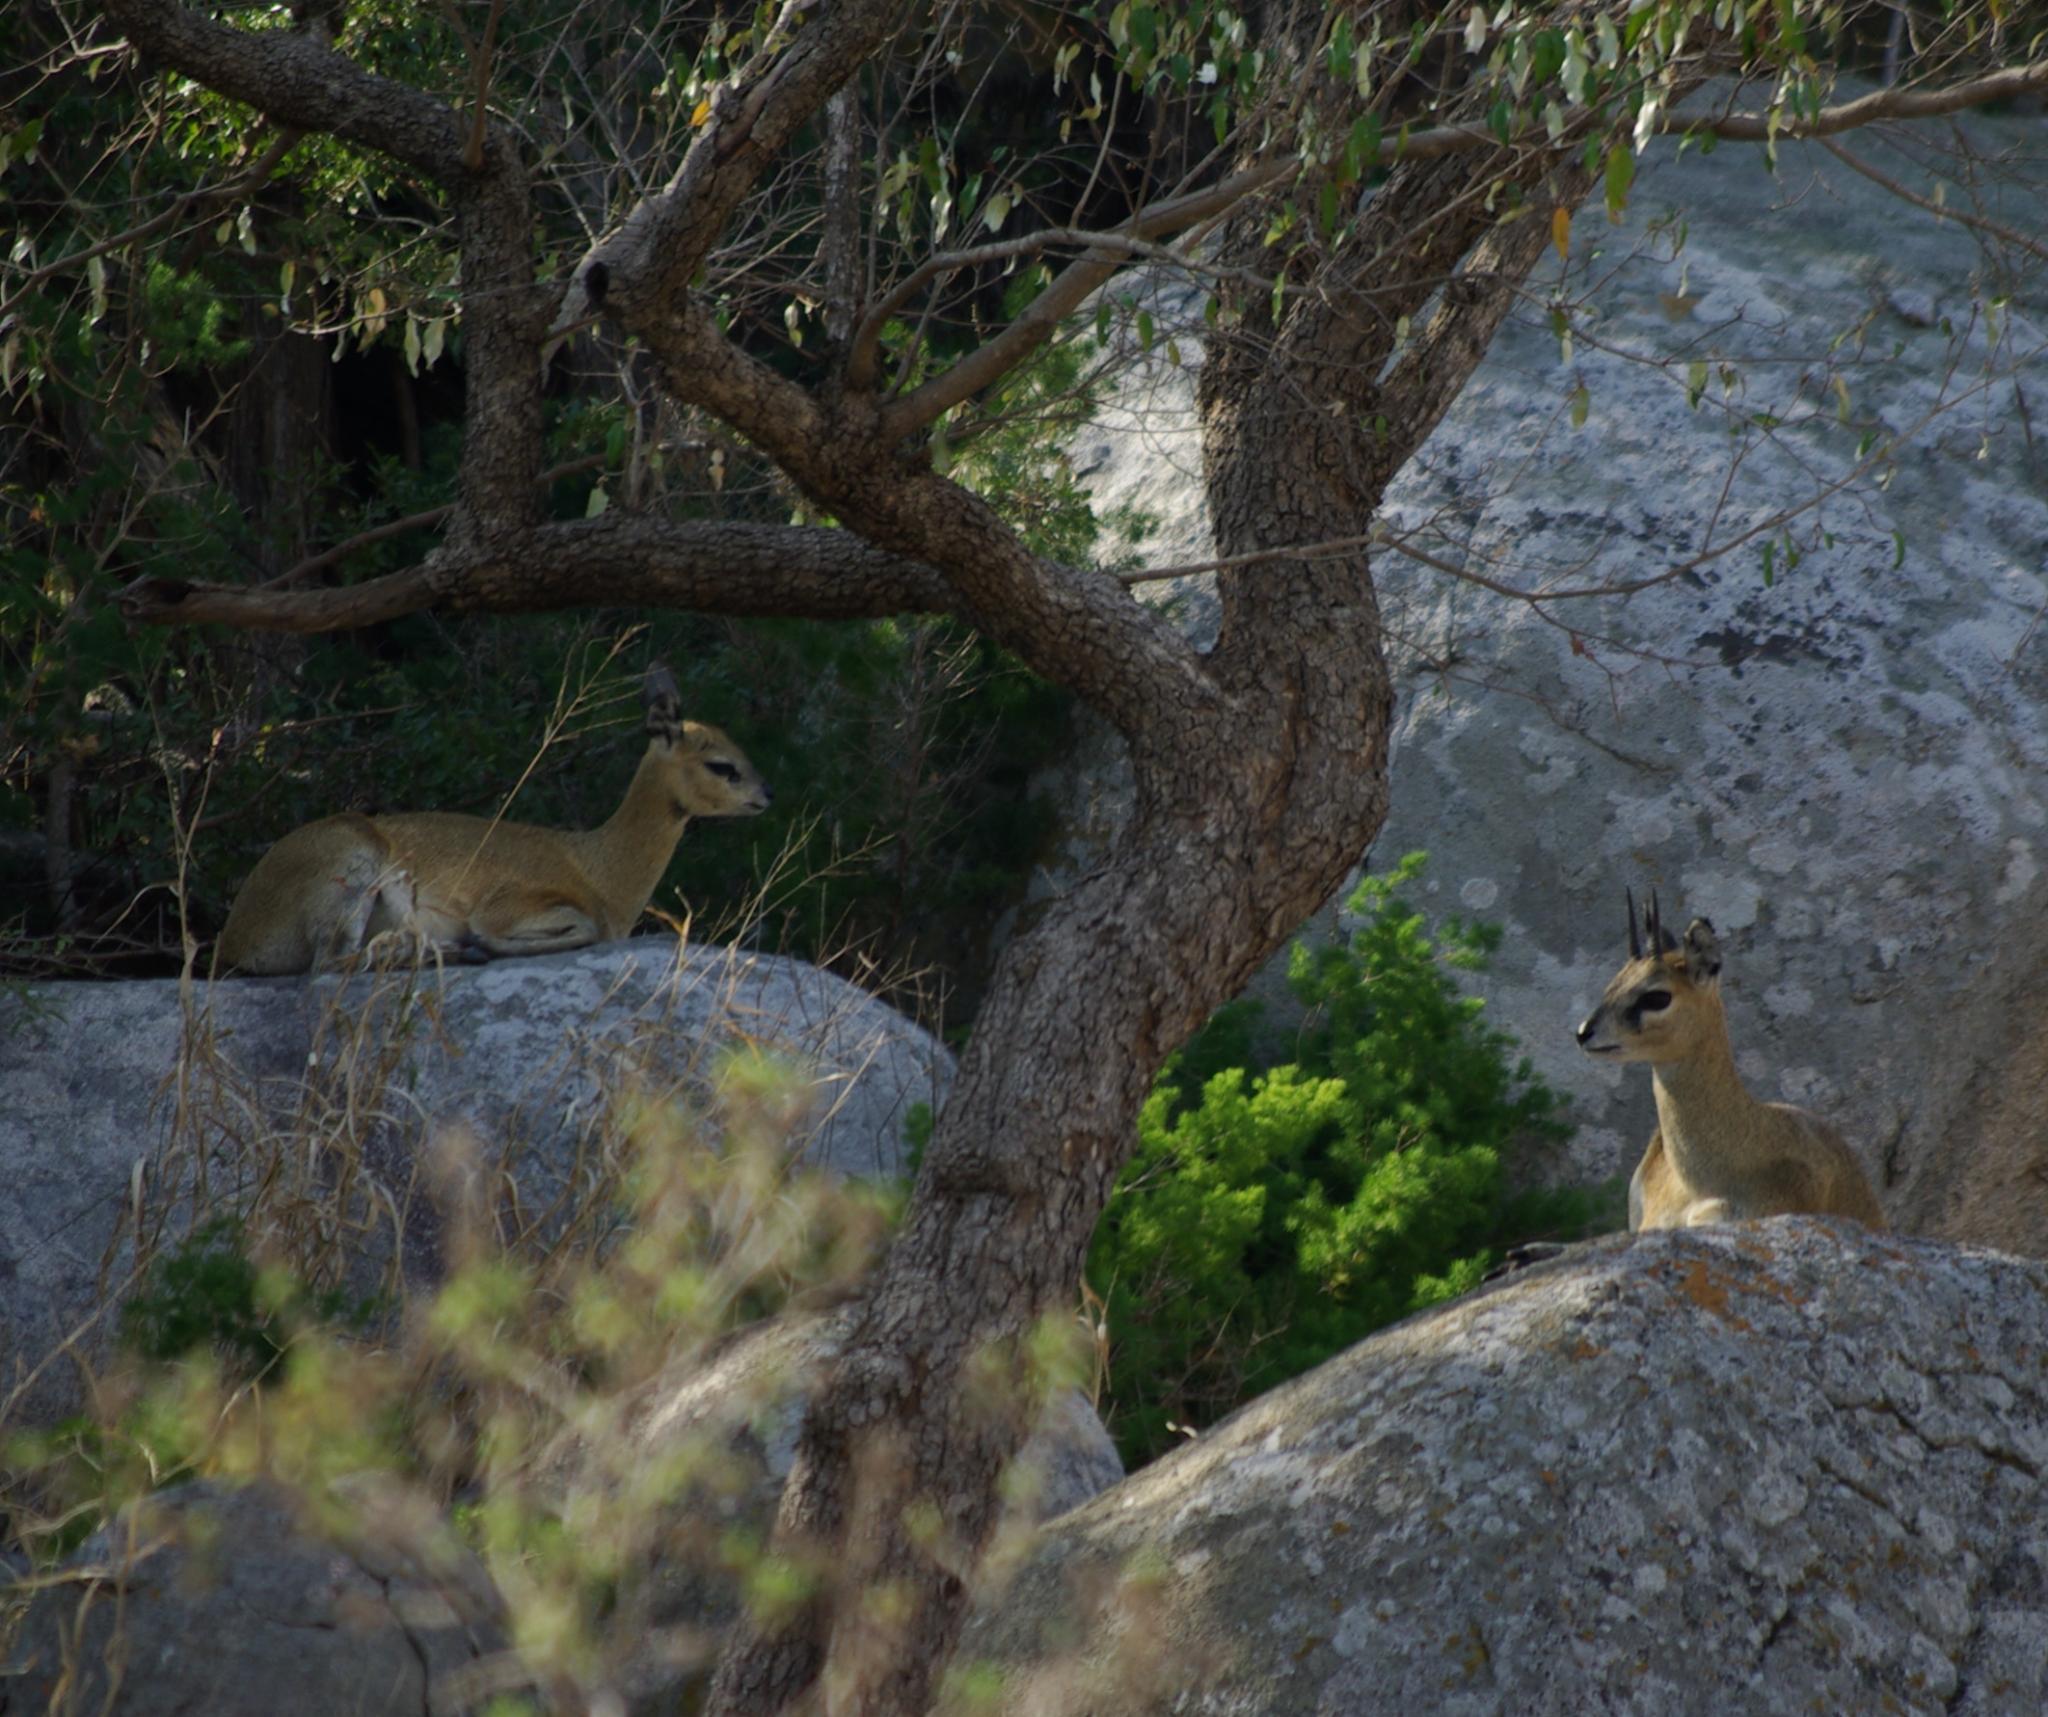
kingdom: Animalia
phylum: Chordata
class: Mammalia
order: Artiodactyla
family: Bovidae
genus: Oreotragus
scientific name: Oreotragus oreotragus
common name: Klipspringer
